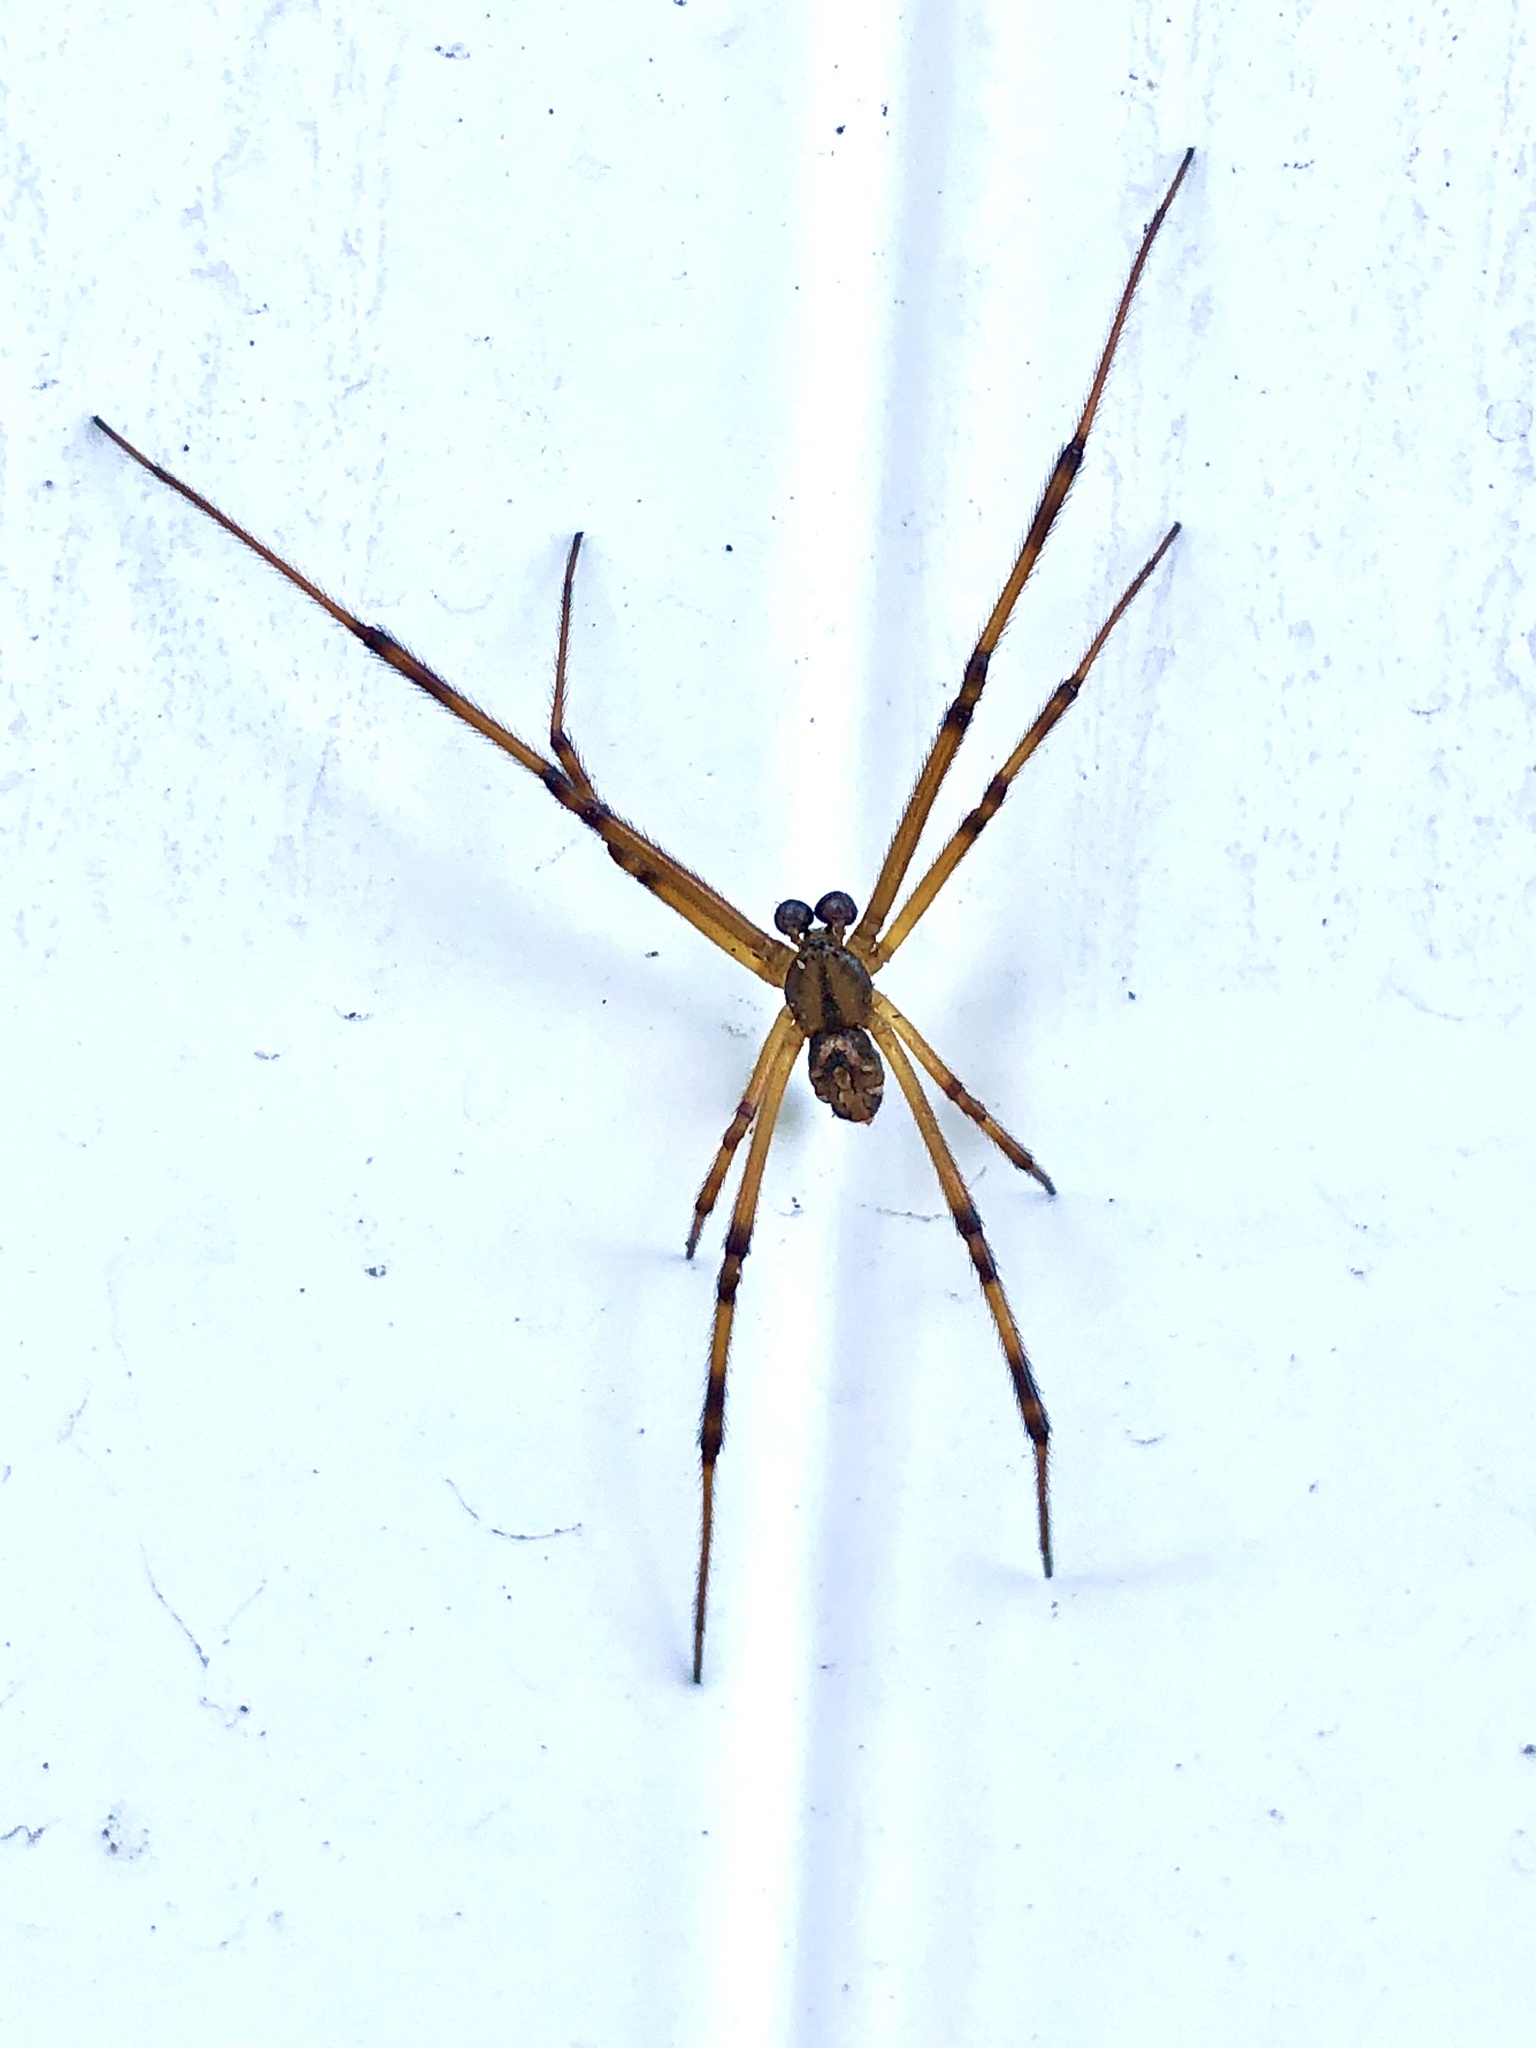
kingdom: Animalia
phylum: Arthropoda
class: Arachnida
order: Araneae
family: Theridiidae
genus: Latrodectus
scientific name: Latrodectus hesperus
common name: Western black widow
